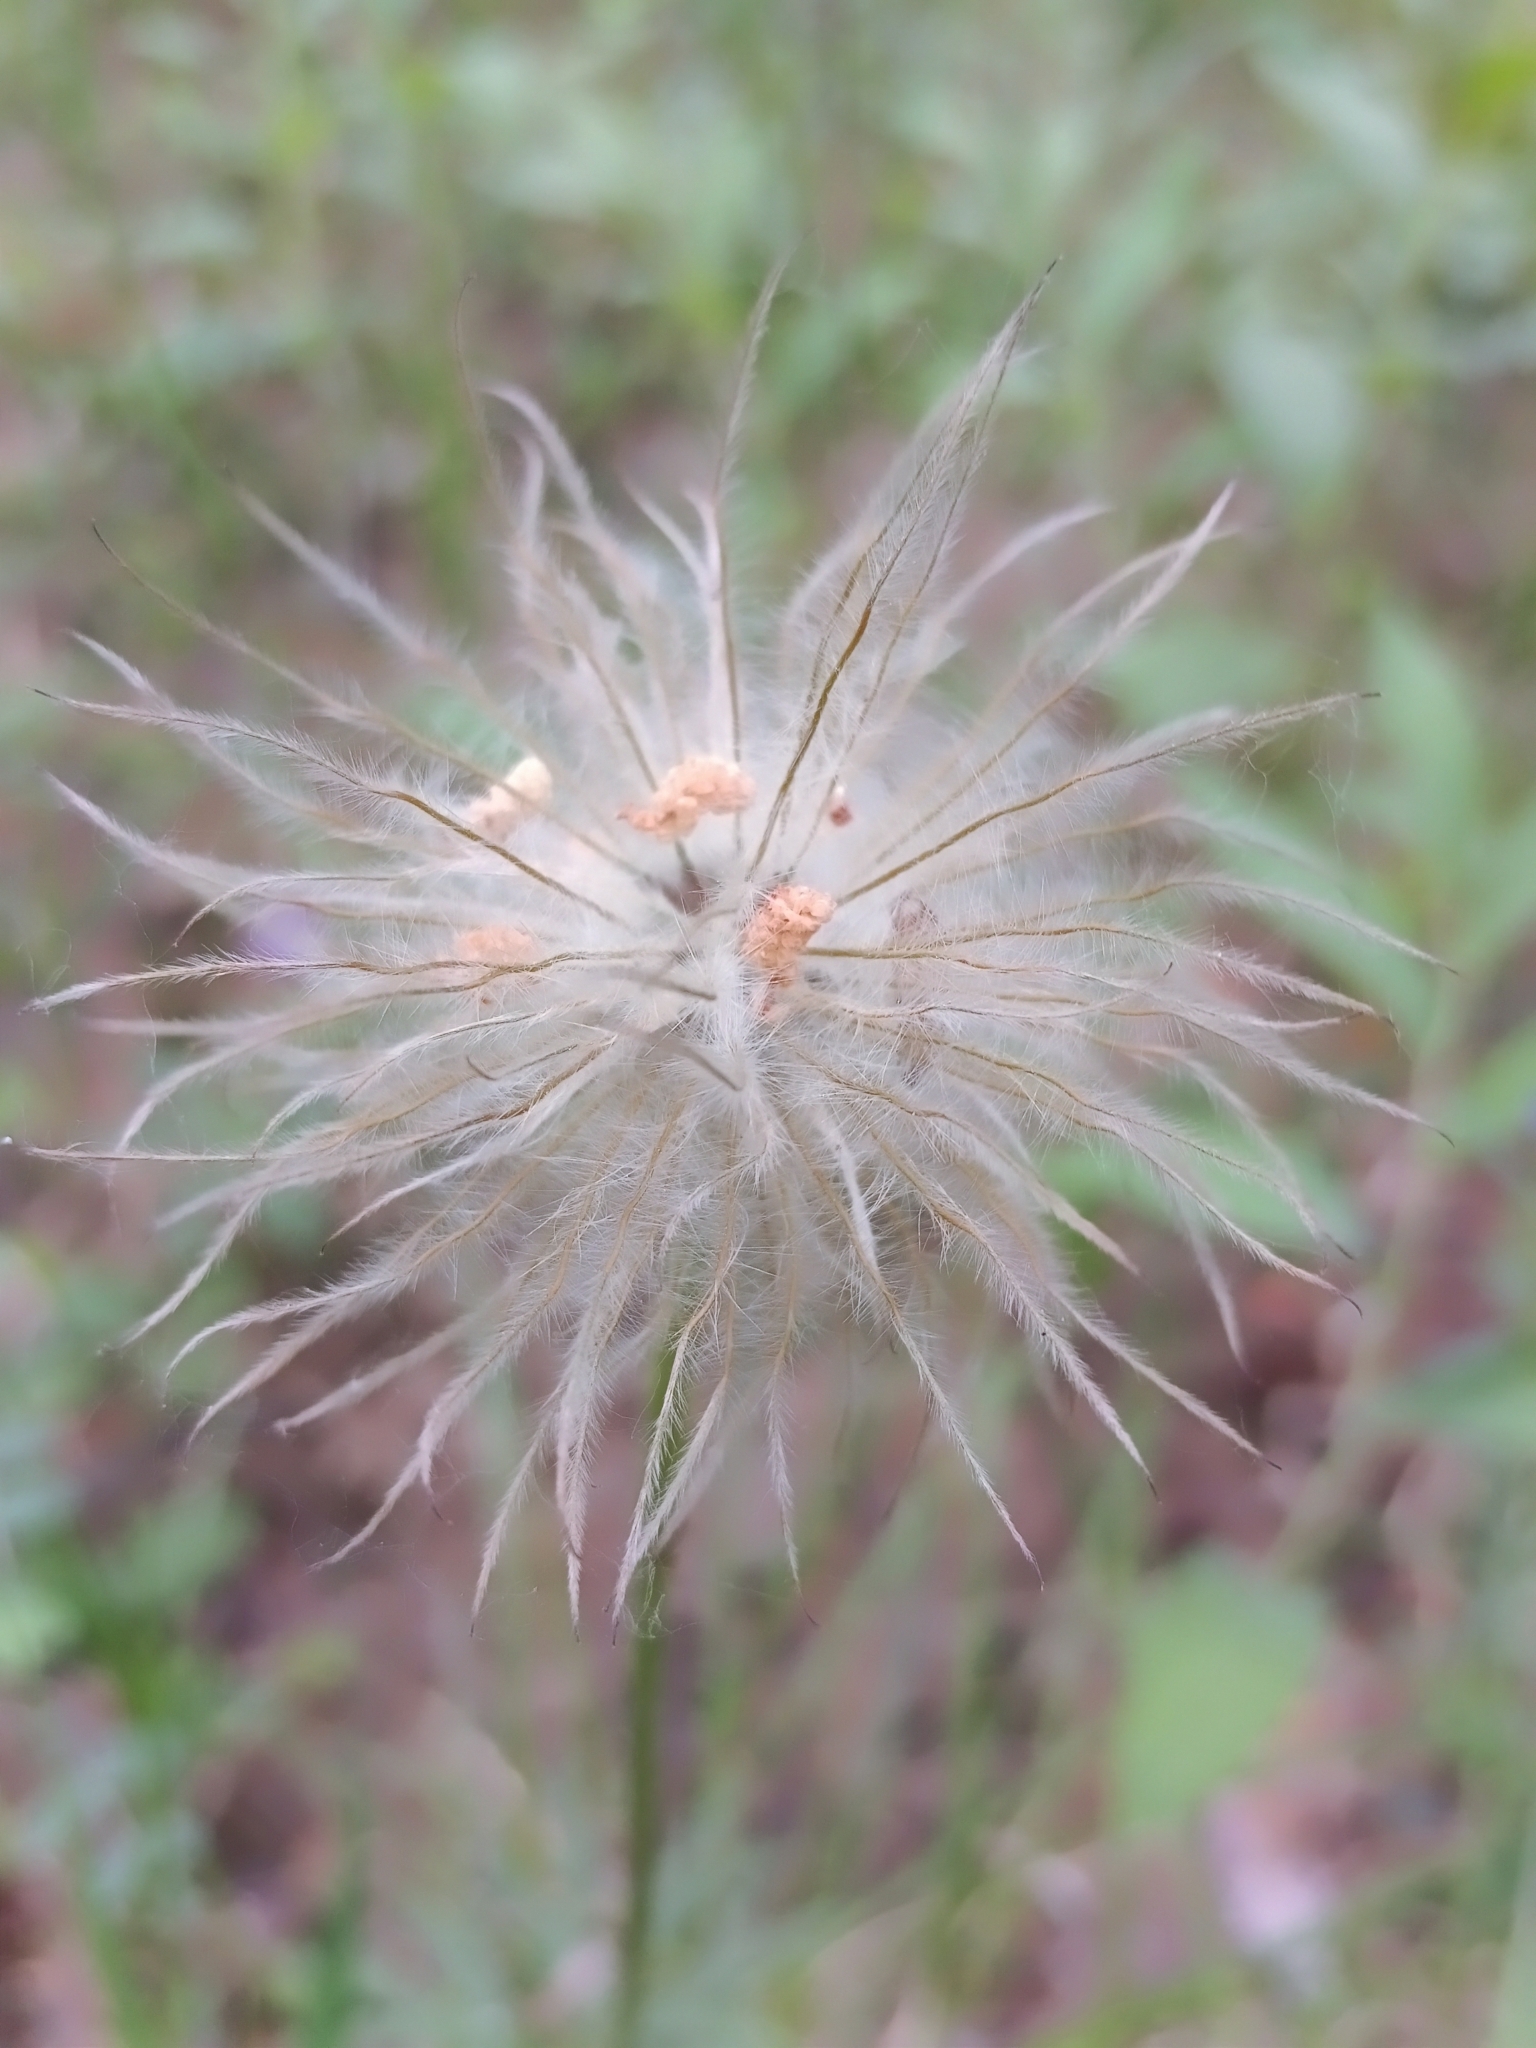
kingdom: Plantae
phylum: Tracheophyta
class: Magnoliopsida
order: Ranunculales
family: Ranunculaceae
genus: Pulsatilla
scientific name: Pulsatilla patens
